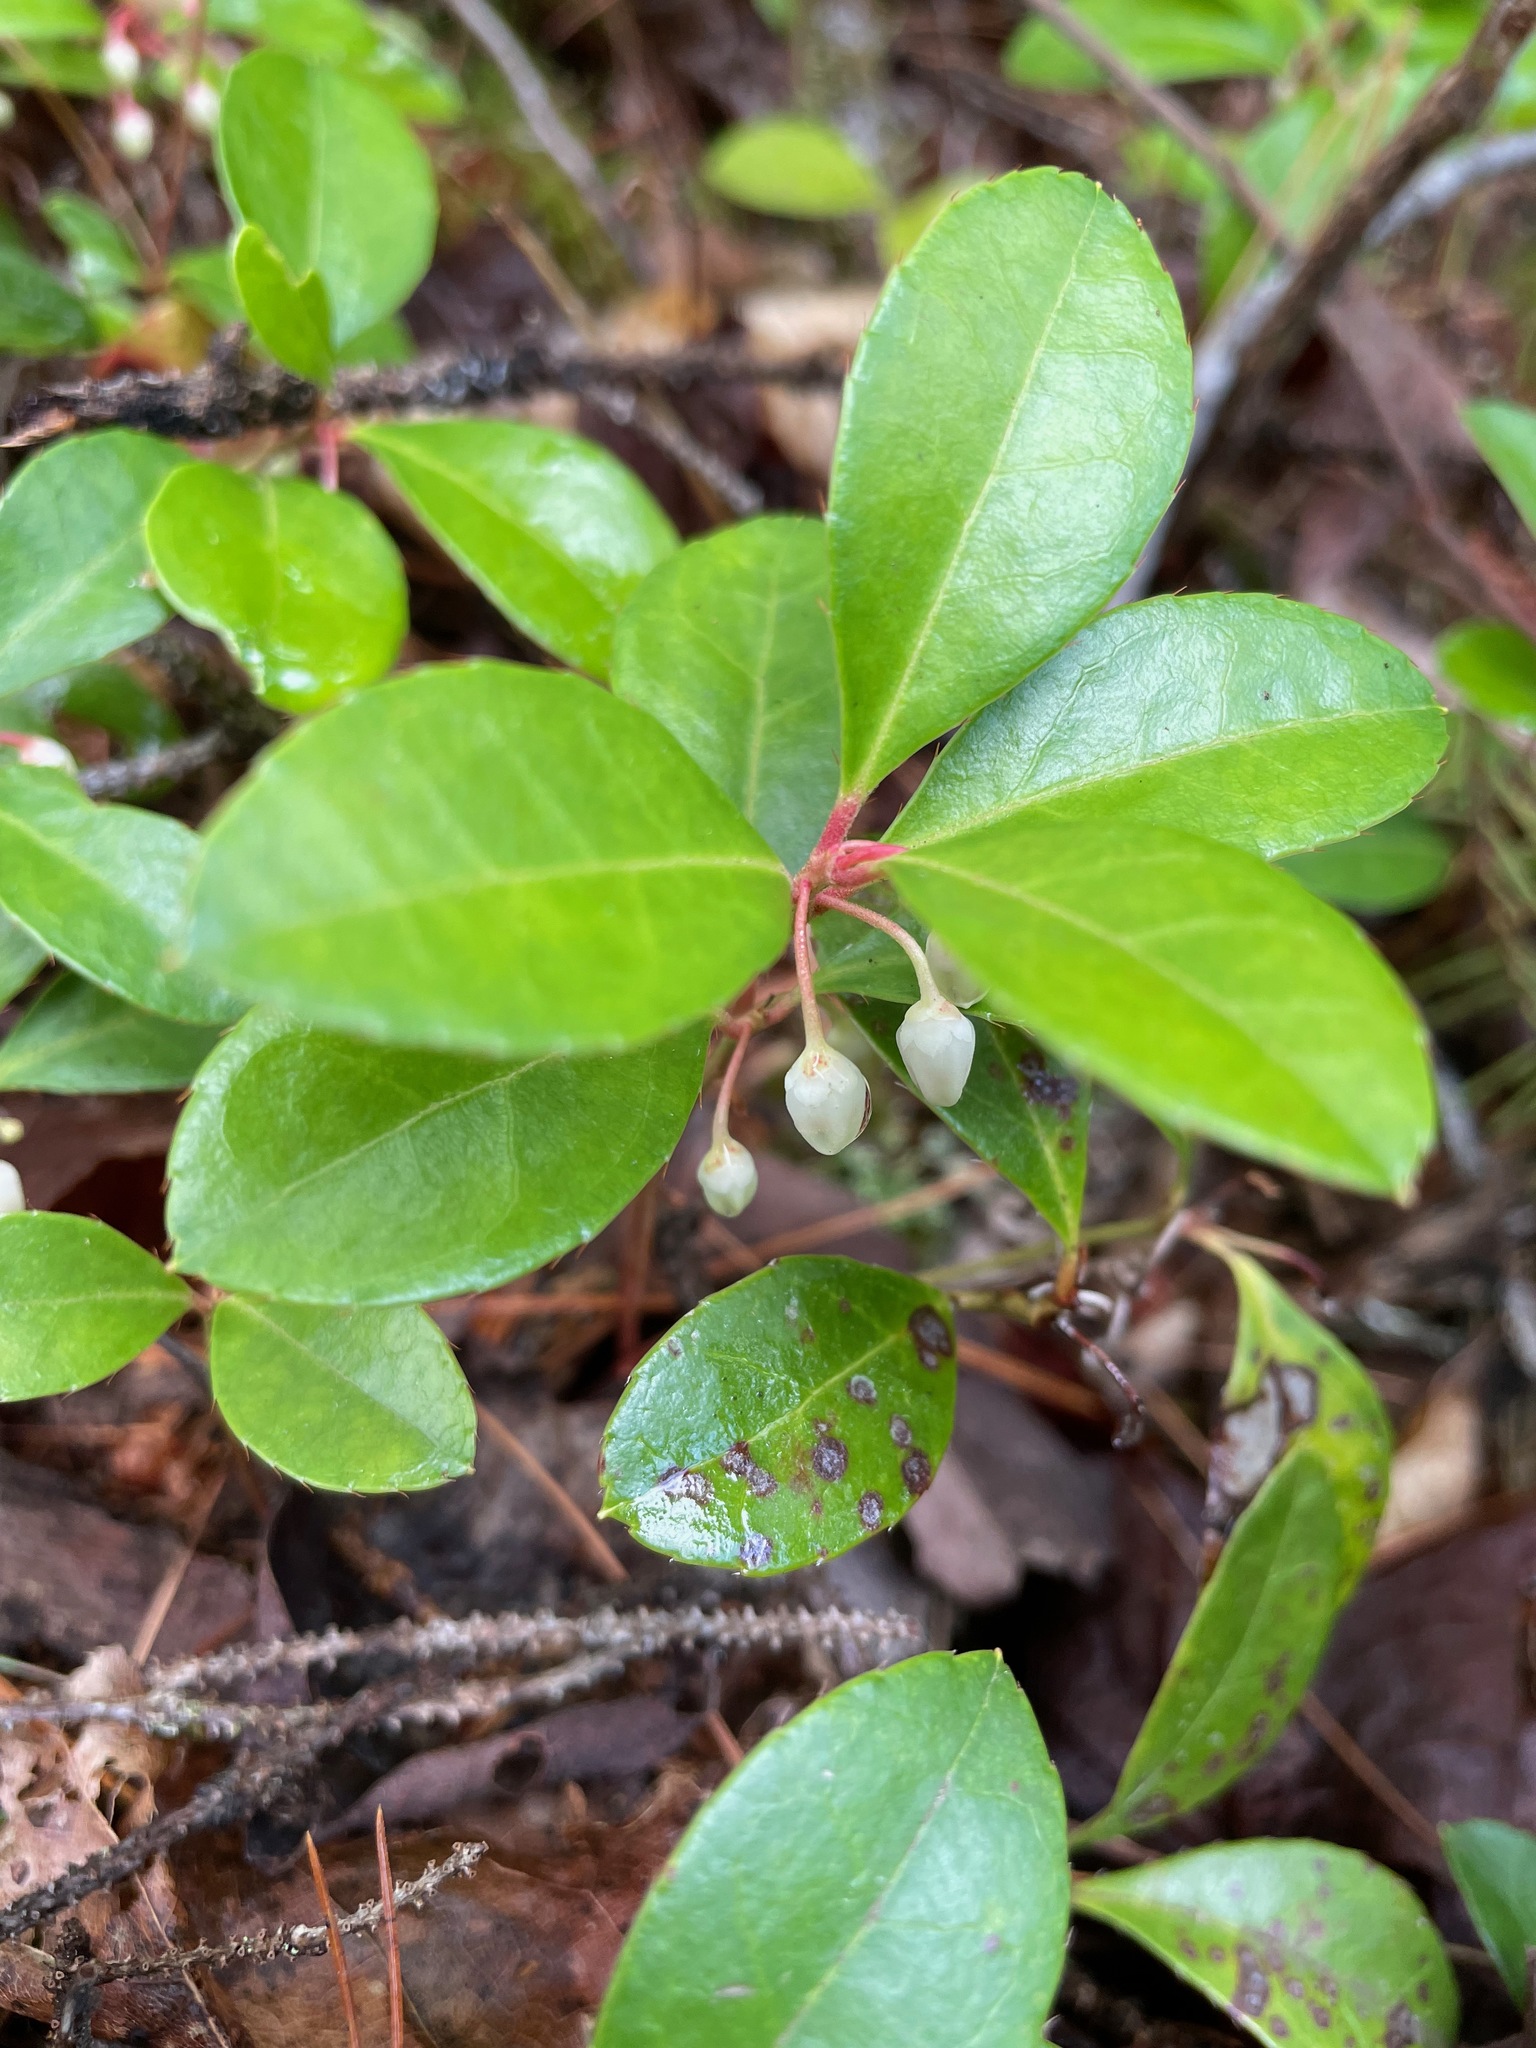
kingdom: Plantae
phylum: Tracheophyta
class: Magnoliopsida
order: Ericales
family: Ericaceae
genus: Gaultheria
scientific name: Gaultheria procumbens
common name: Checkerberry
